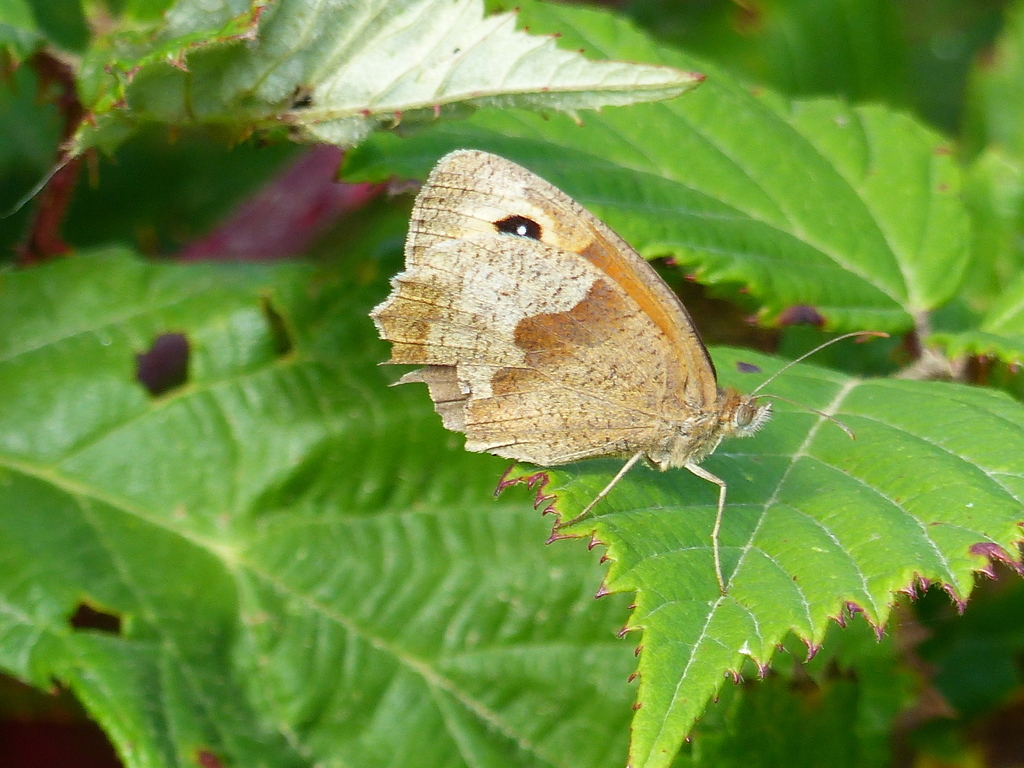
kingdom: Animalia
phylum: Arthropoda
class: Insecta
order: Lepidoptera
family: Nymphalidae
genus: Maniola
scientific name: Maniola jurtina
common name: Meadow brown
